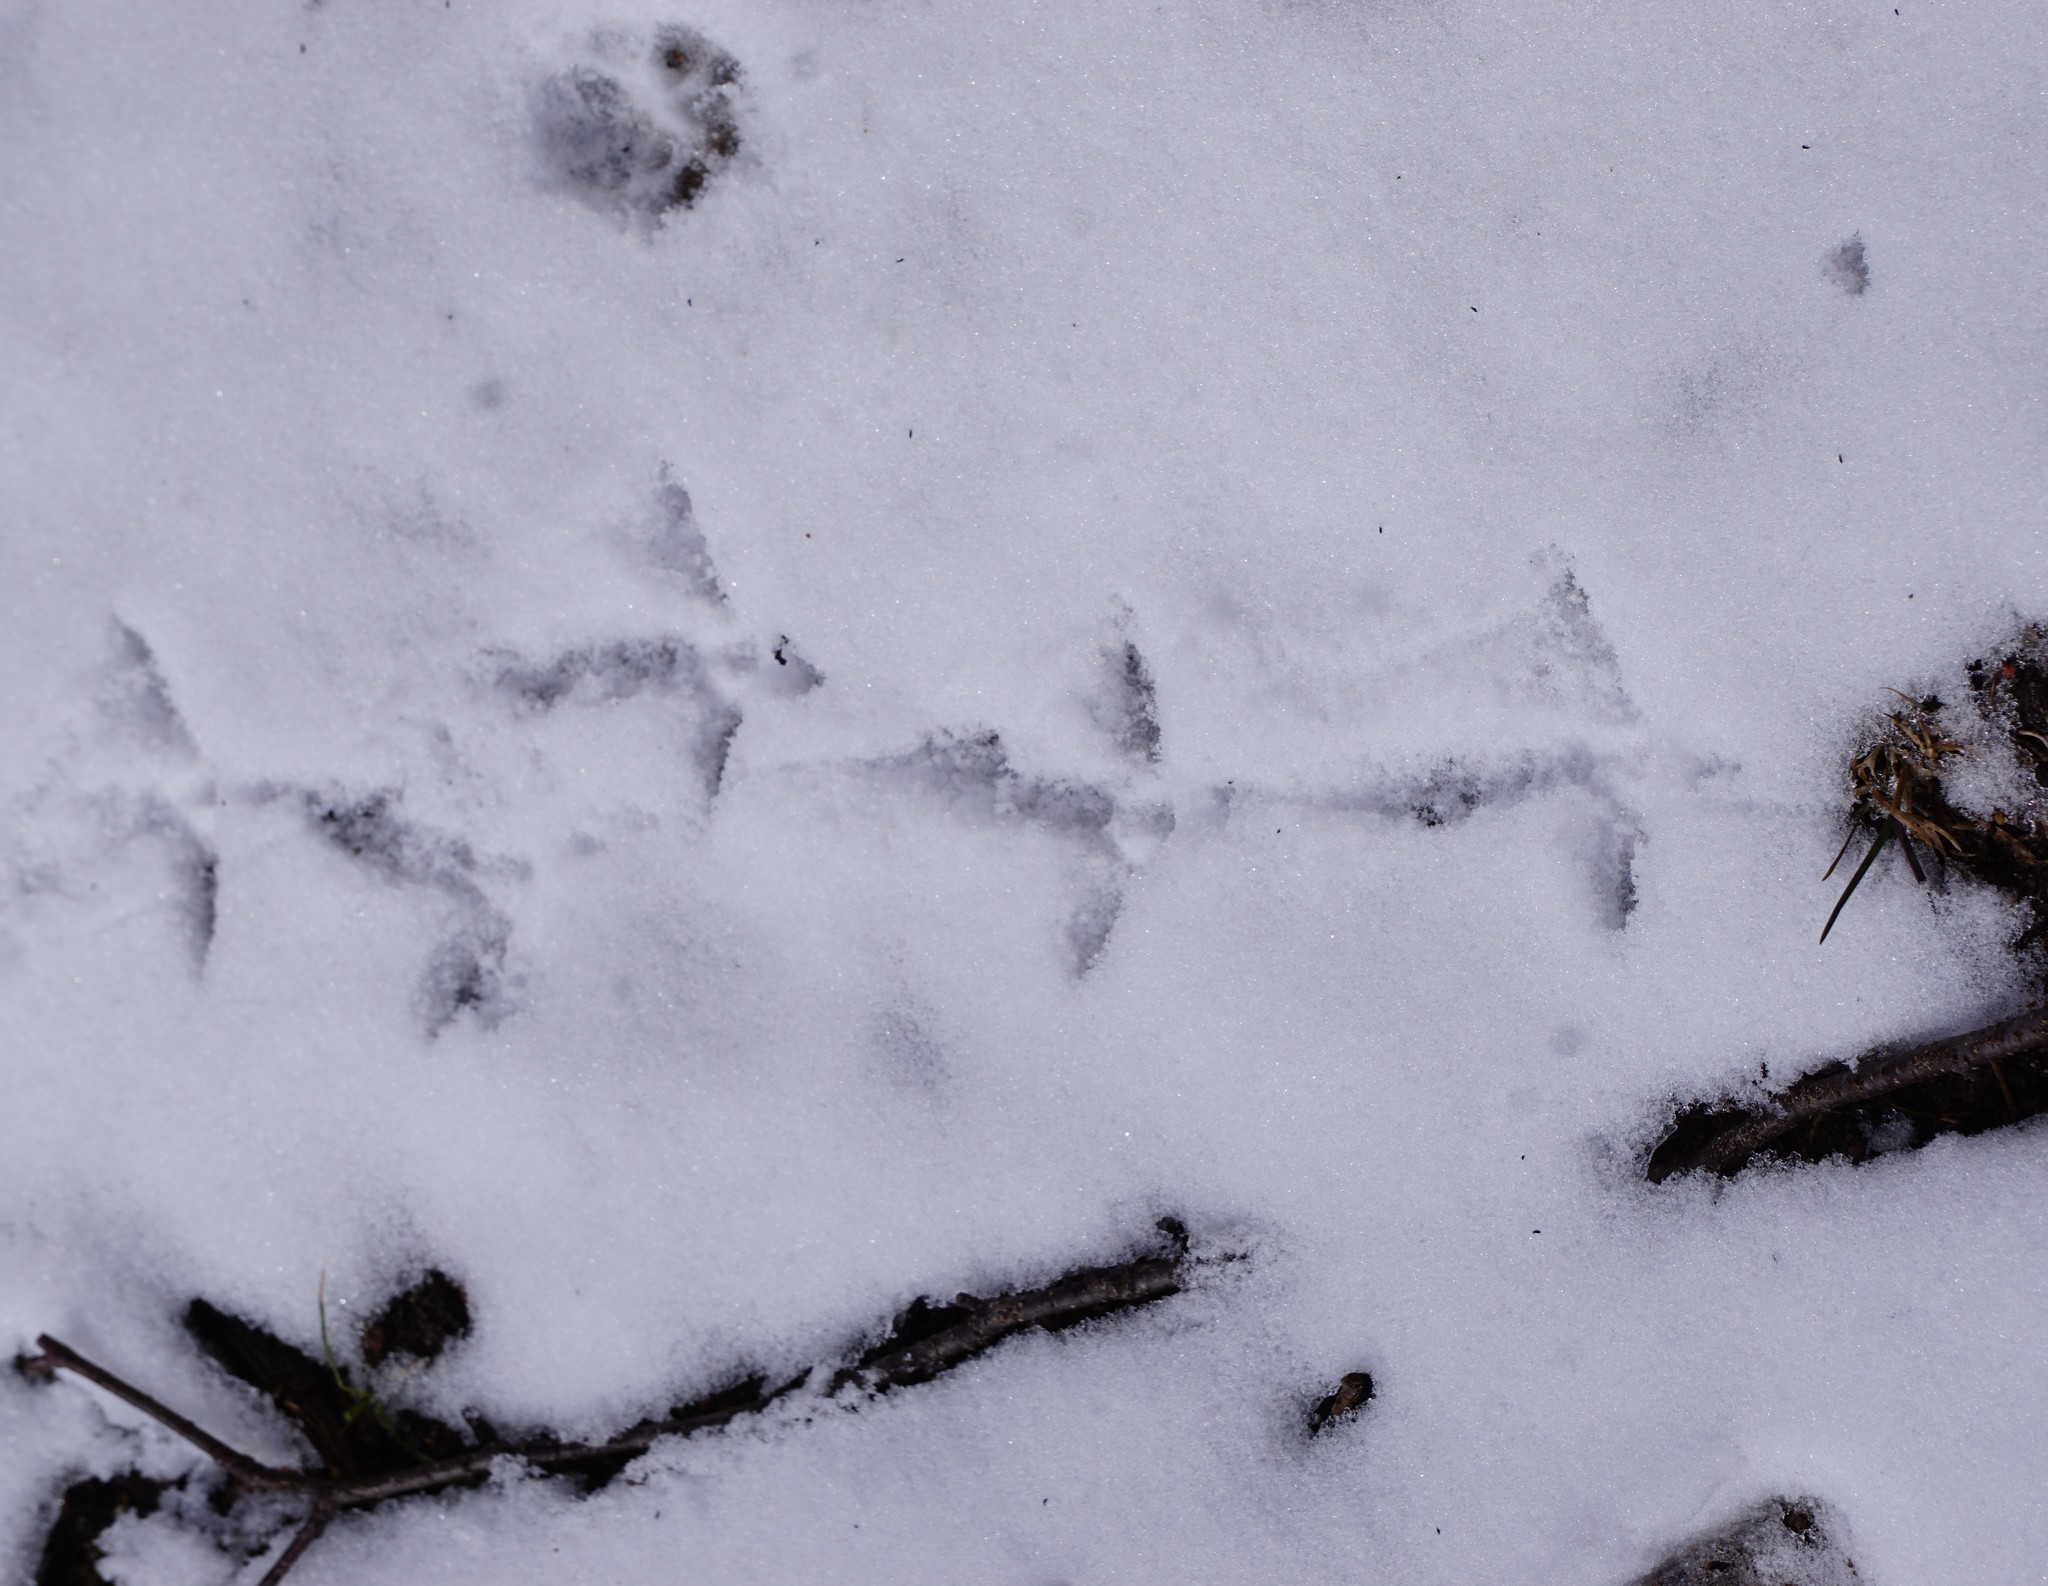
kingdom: Animalia
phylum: Chordata
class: Aves
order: Galliformes
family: Phasianidae
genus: Bonasa
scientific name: Bonasa umbellus
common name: Ruffed grouse
